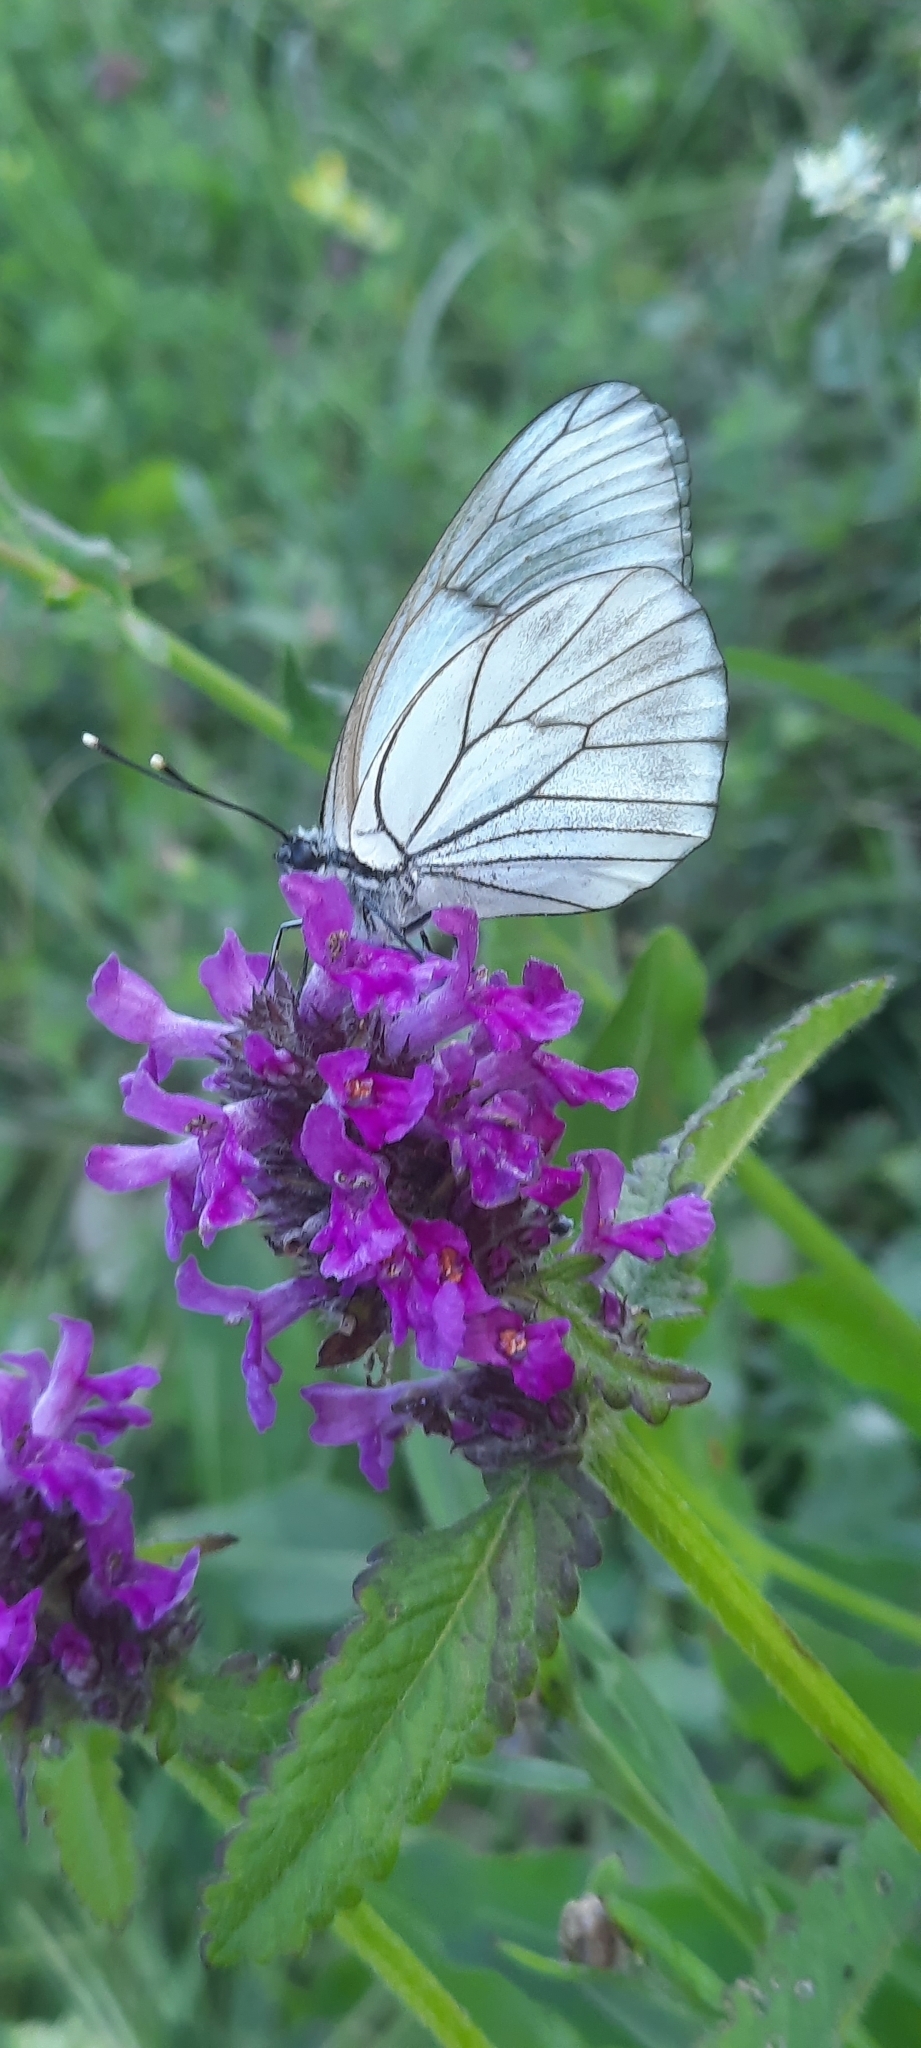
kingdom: Animalia
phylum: Arthropoda
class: Insecta
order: Lepidoptera
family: Pieridae
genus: Aporia
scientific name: Aporia crataegi
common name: Black-veined white
